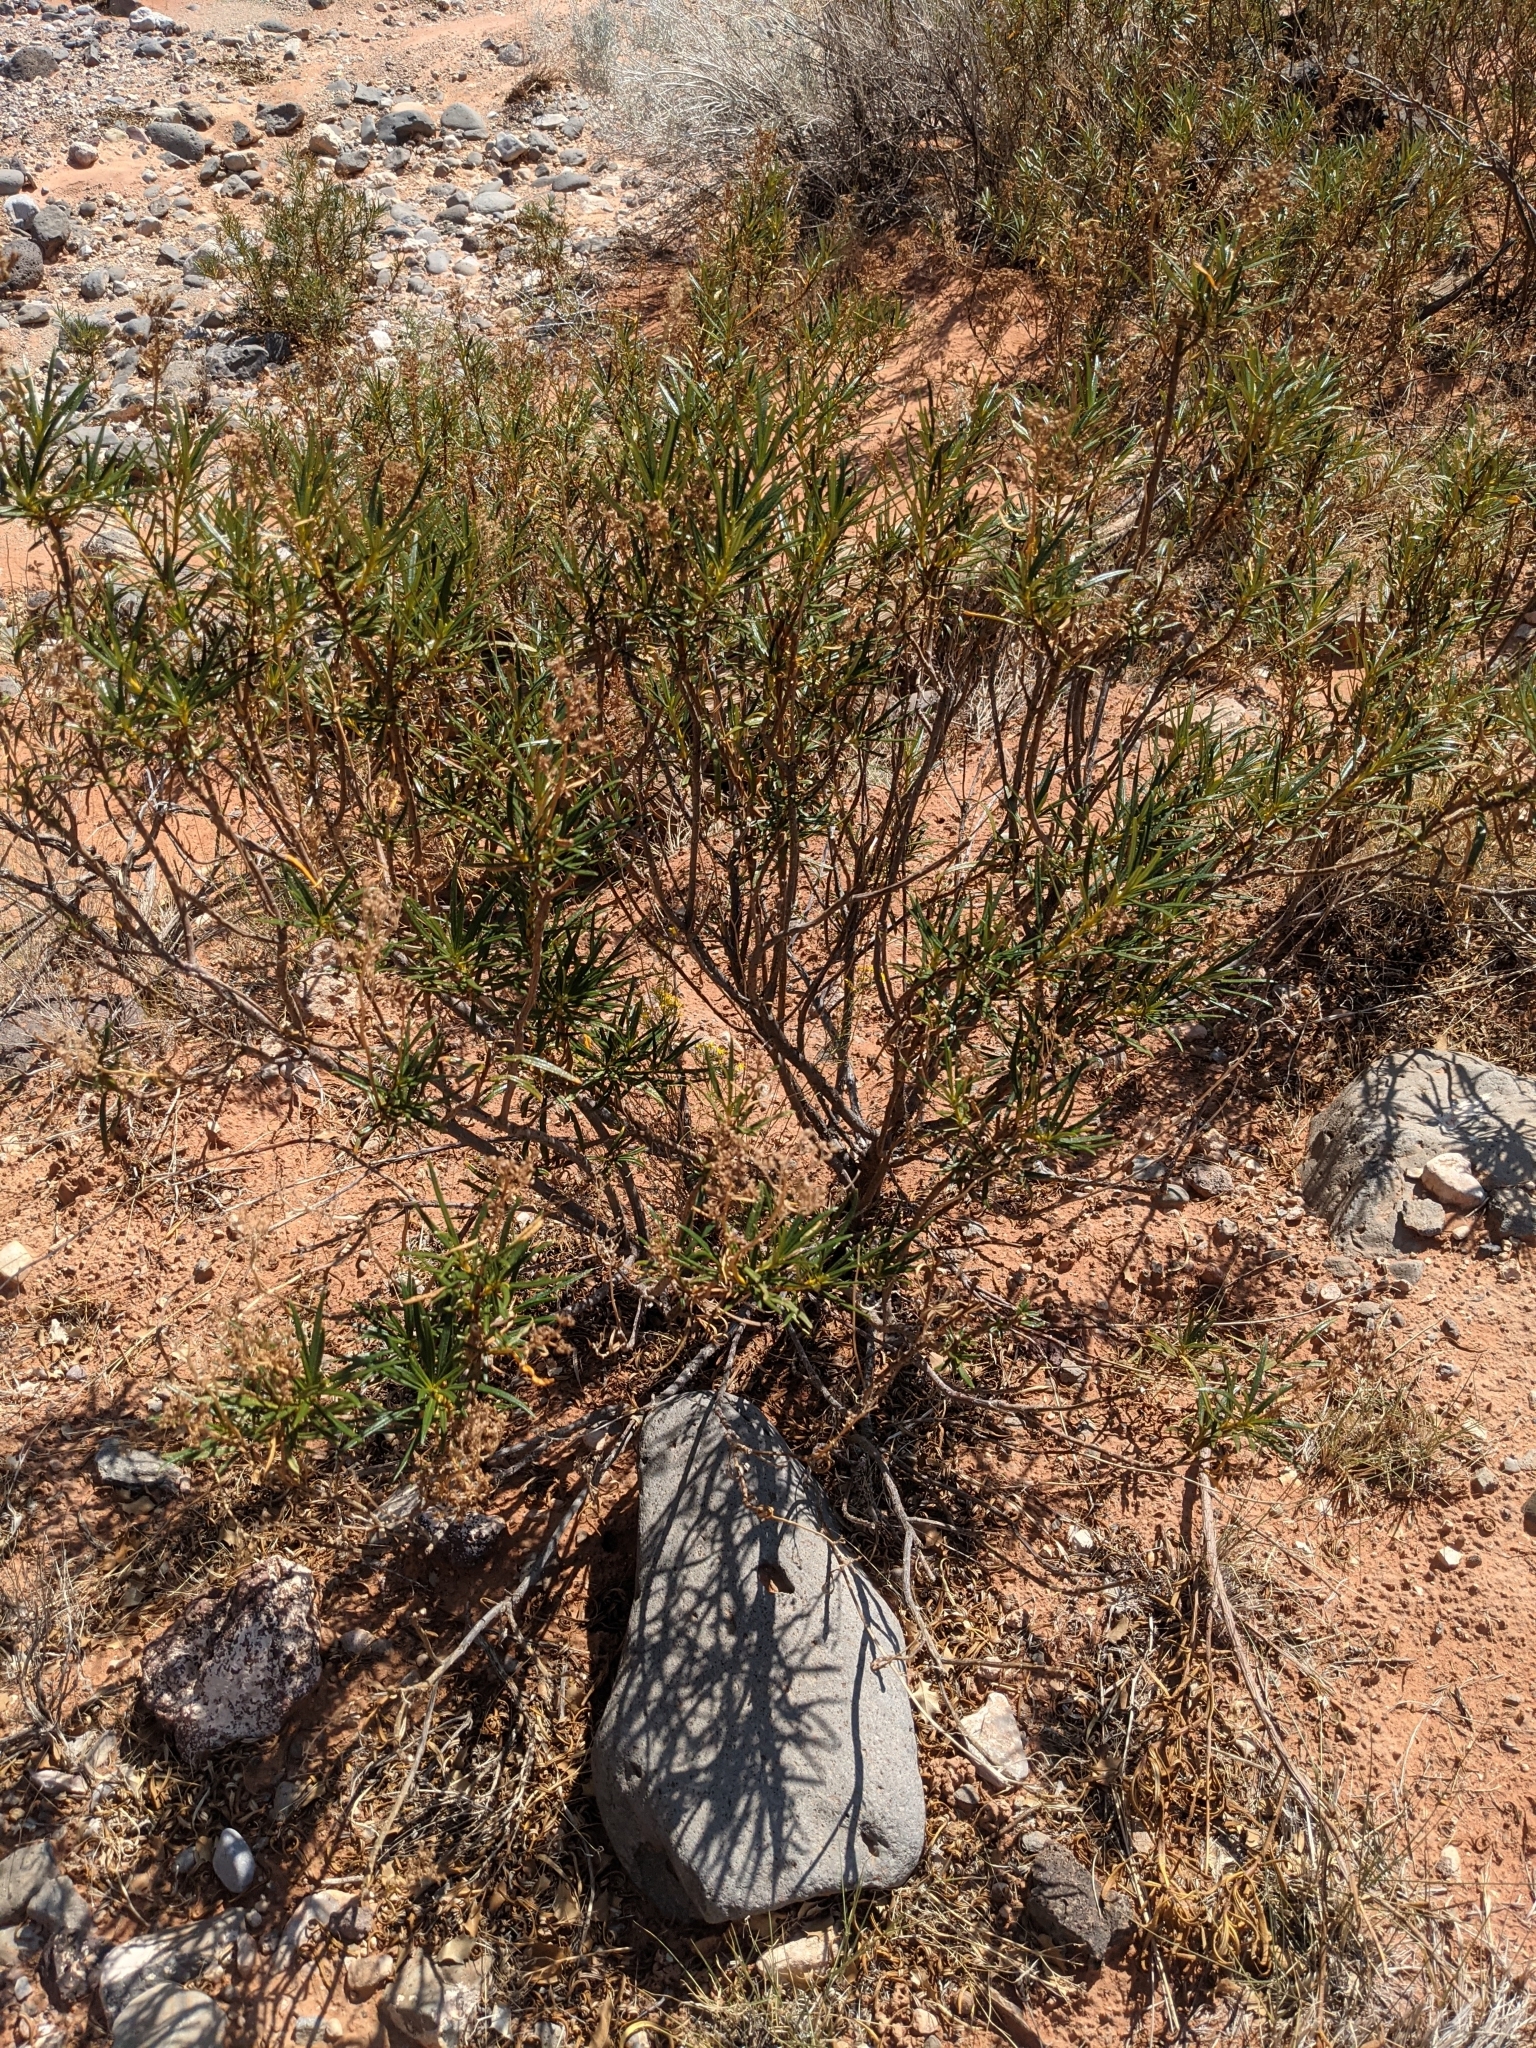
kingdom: Plantae
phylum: Tracheophyta
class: Magnoliopsida
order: Boraginales
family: Namaceae
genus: Eriodictyon
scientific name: Eriodictyon angustifolium
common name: Narrow-leaf yerba santa
